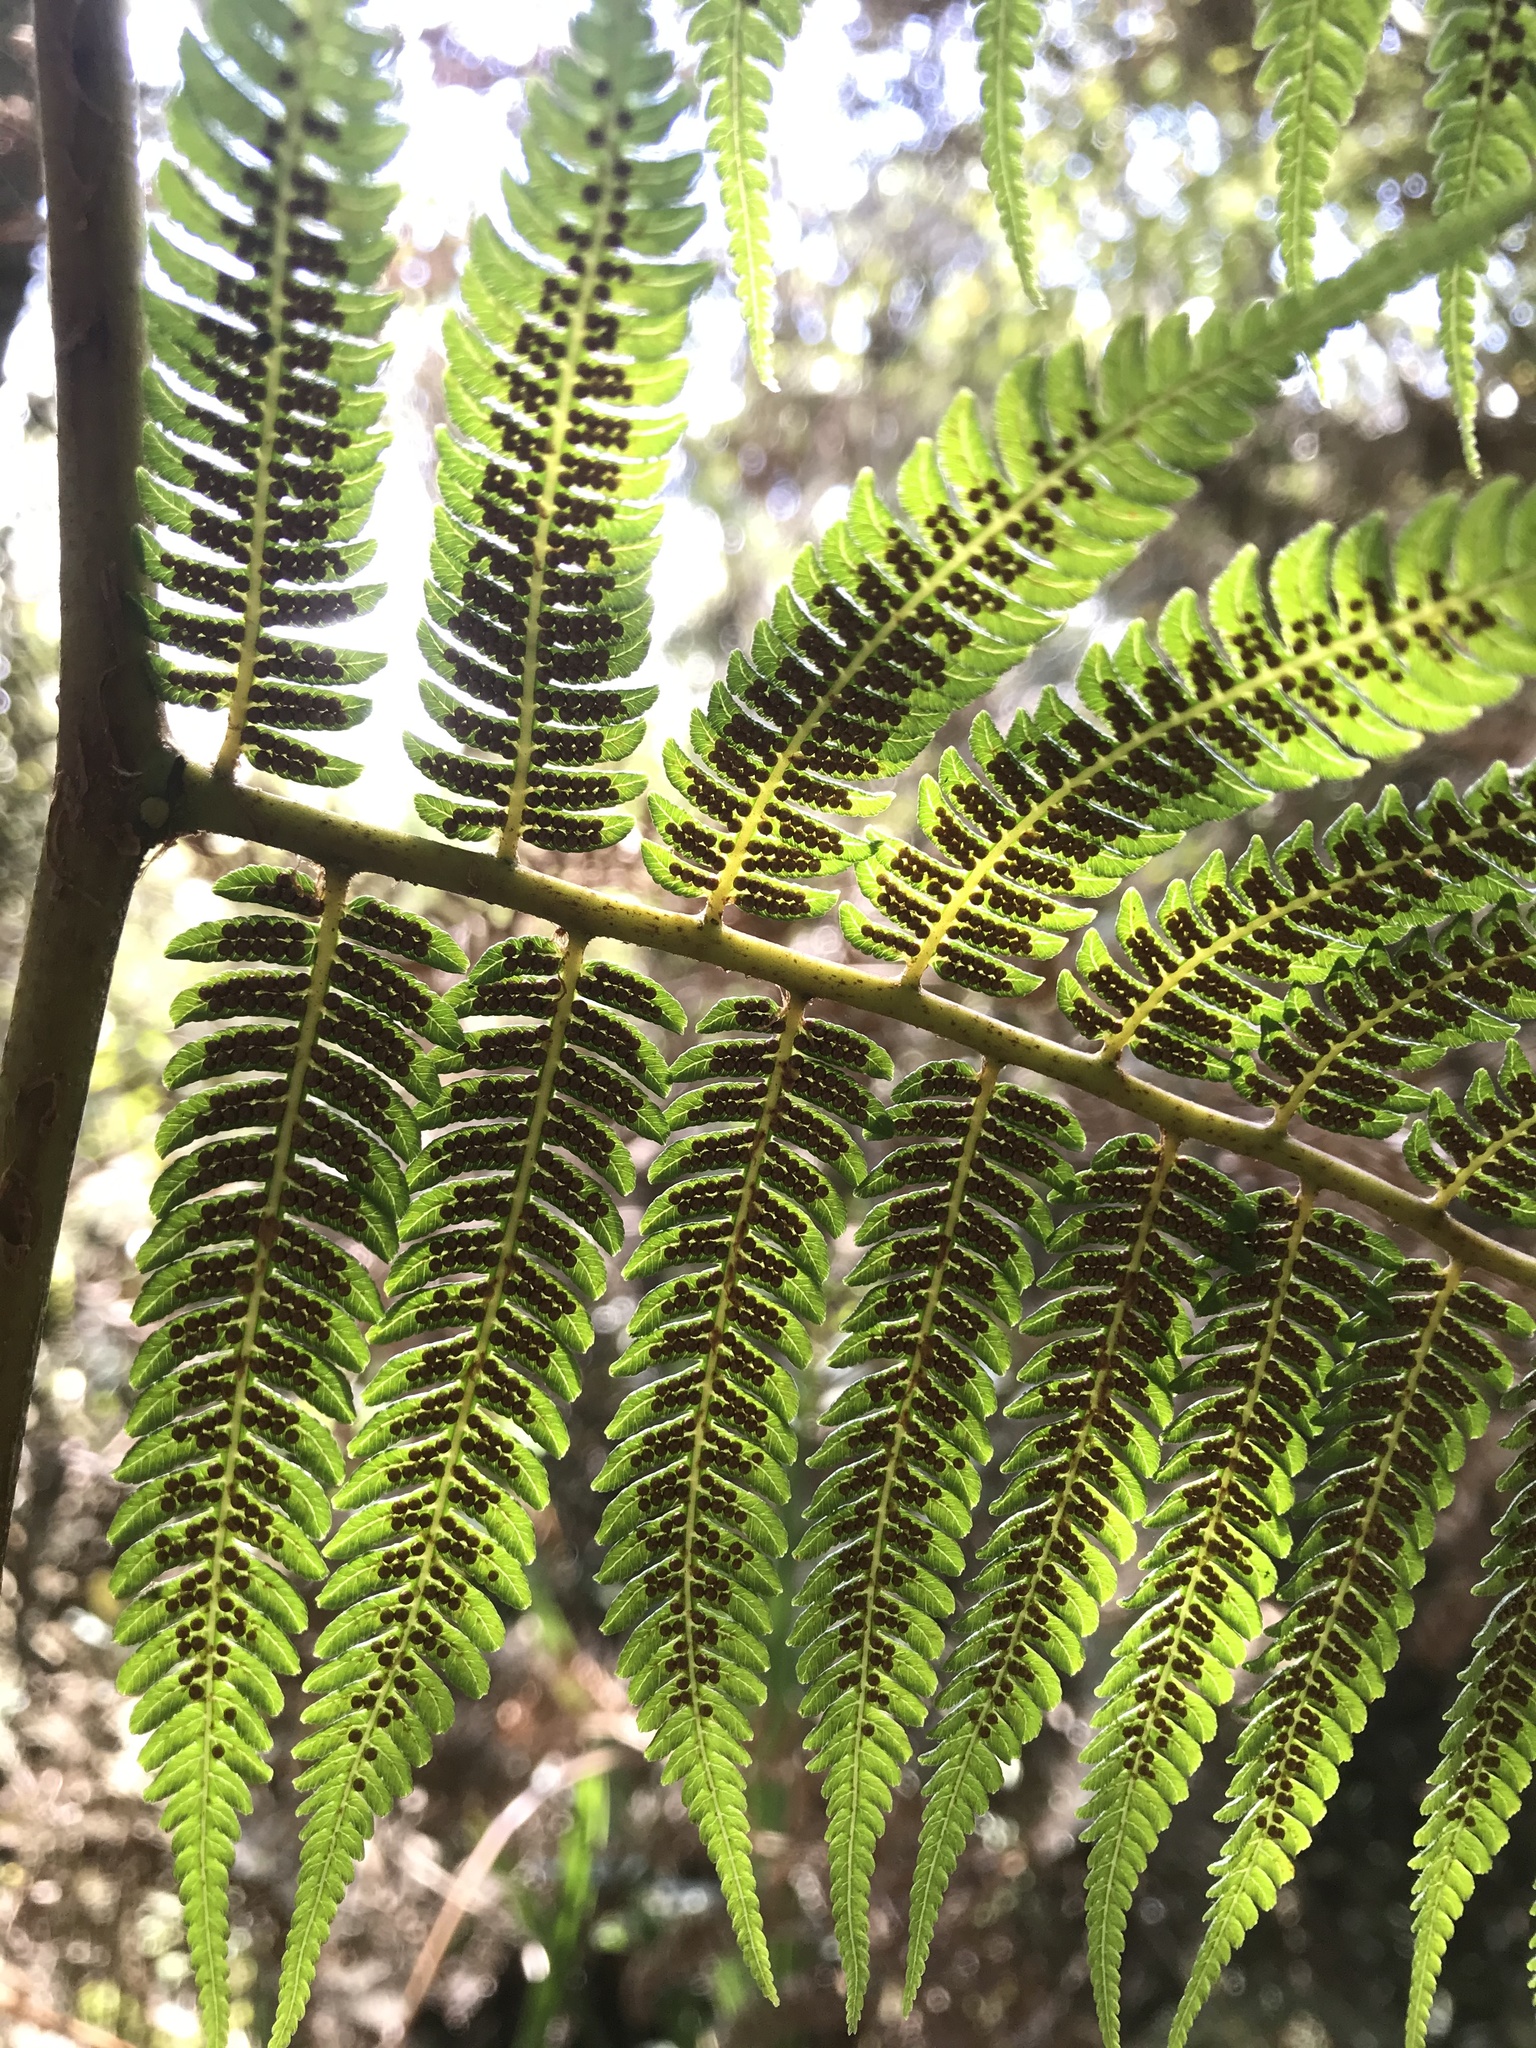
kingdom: Plantae
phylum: Tracheophyta
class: Polypodiopsida
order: Cyatheales
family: Cyatheaceae
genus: Cyathea
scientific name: Cyathea lindeniana
